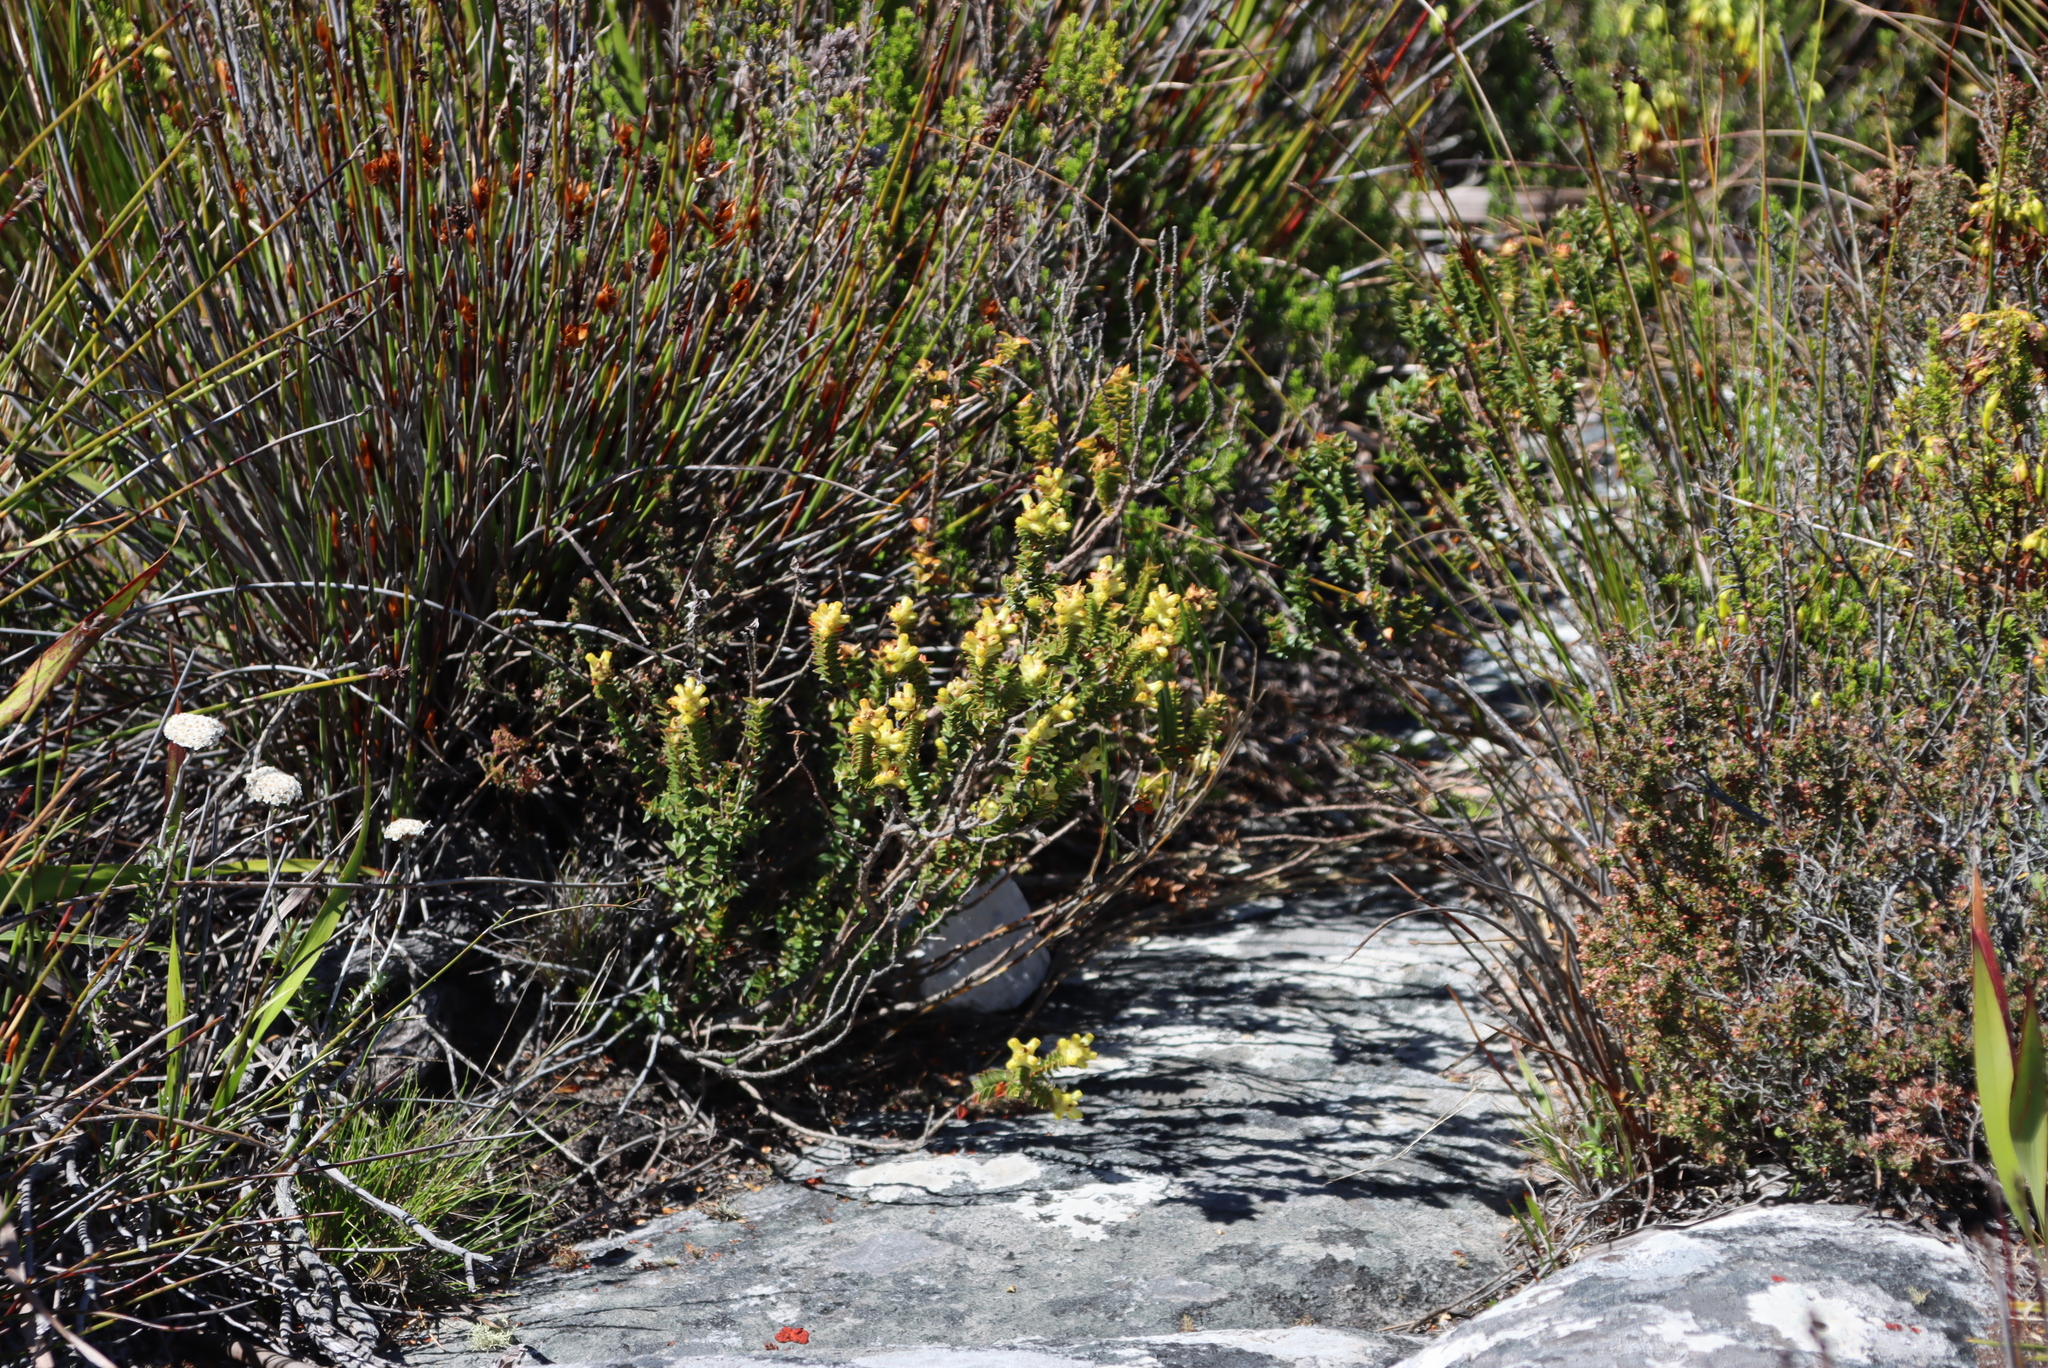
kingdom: Plantae
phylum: Tracheophyta
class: Magnoliopsida
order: Myrtales
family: Penaeaceae
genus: Penaea
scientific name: Penaea mucronata
